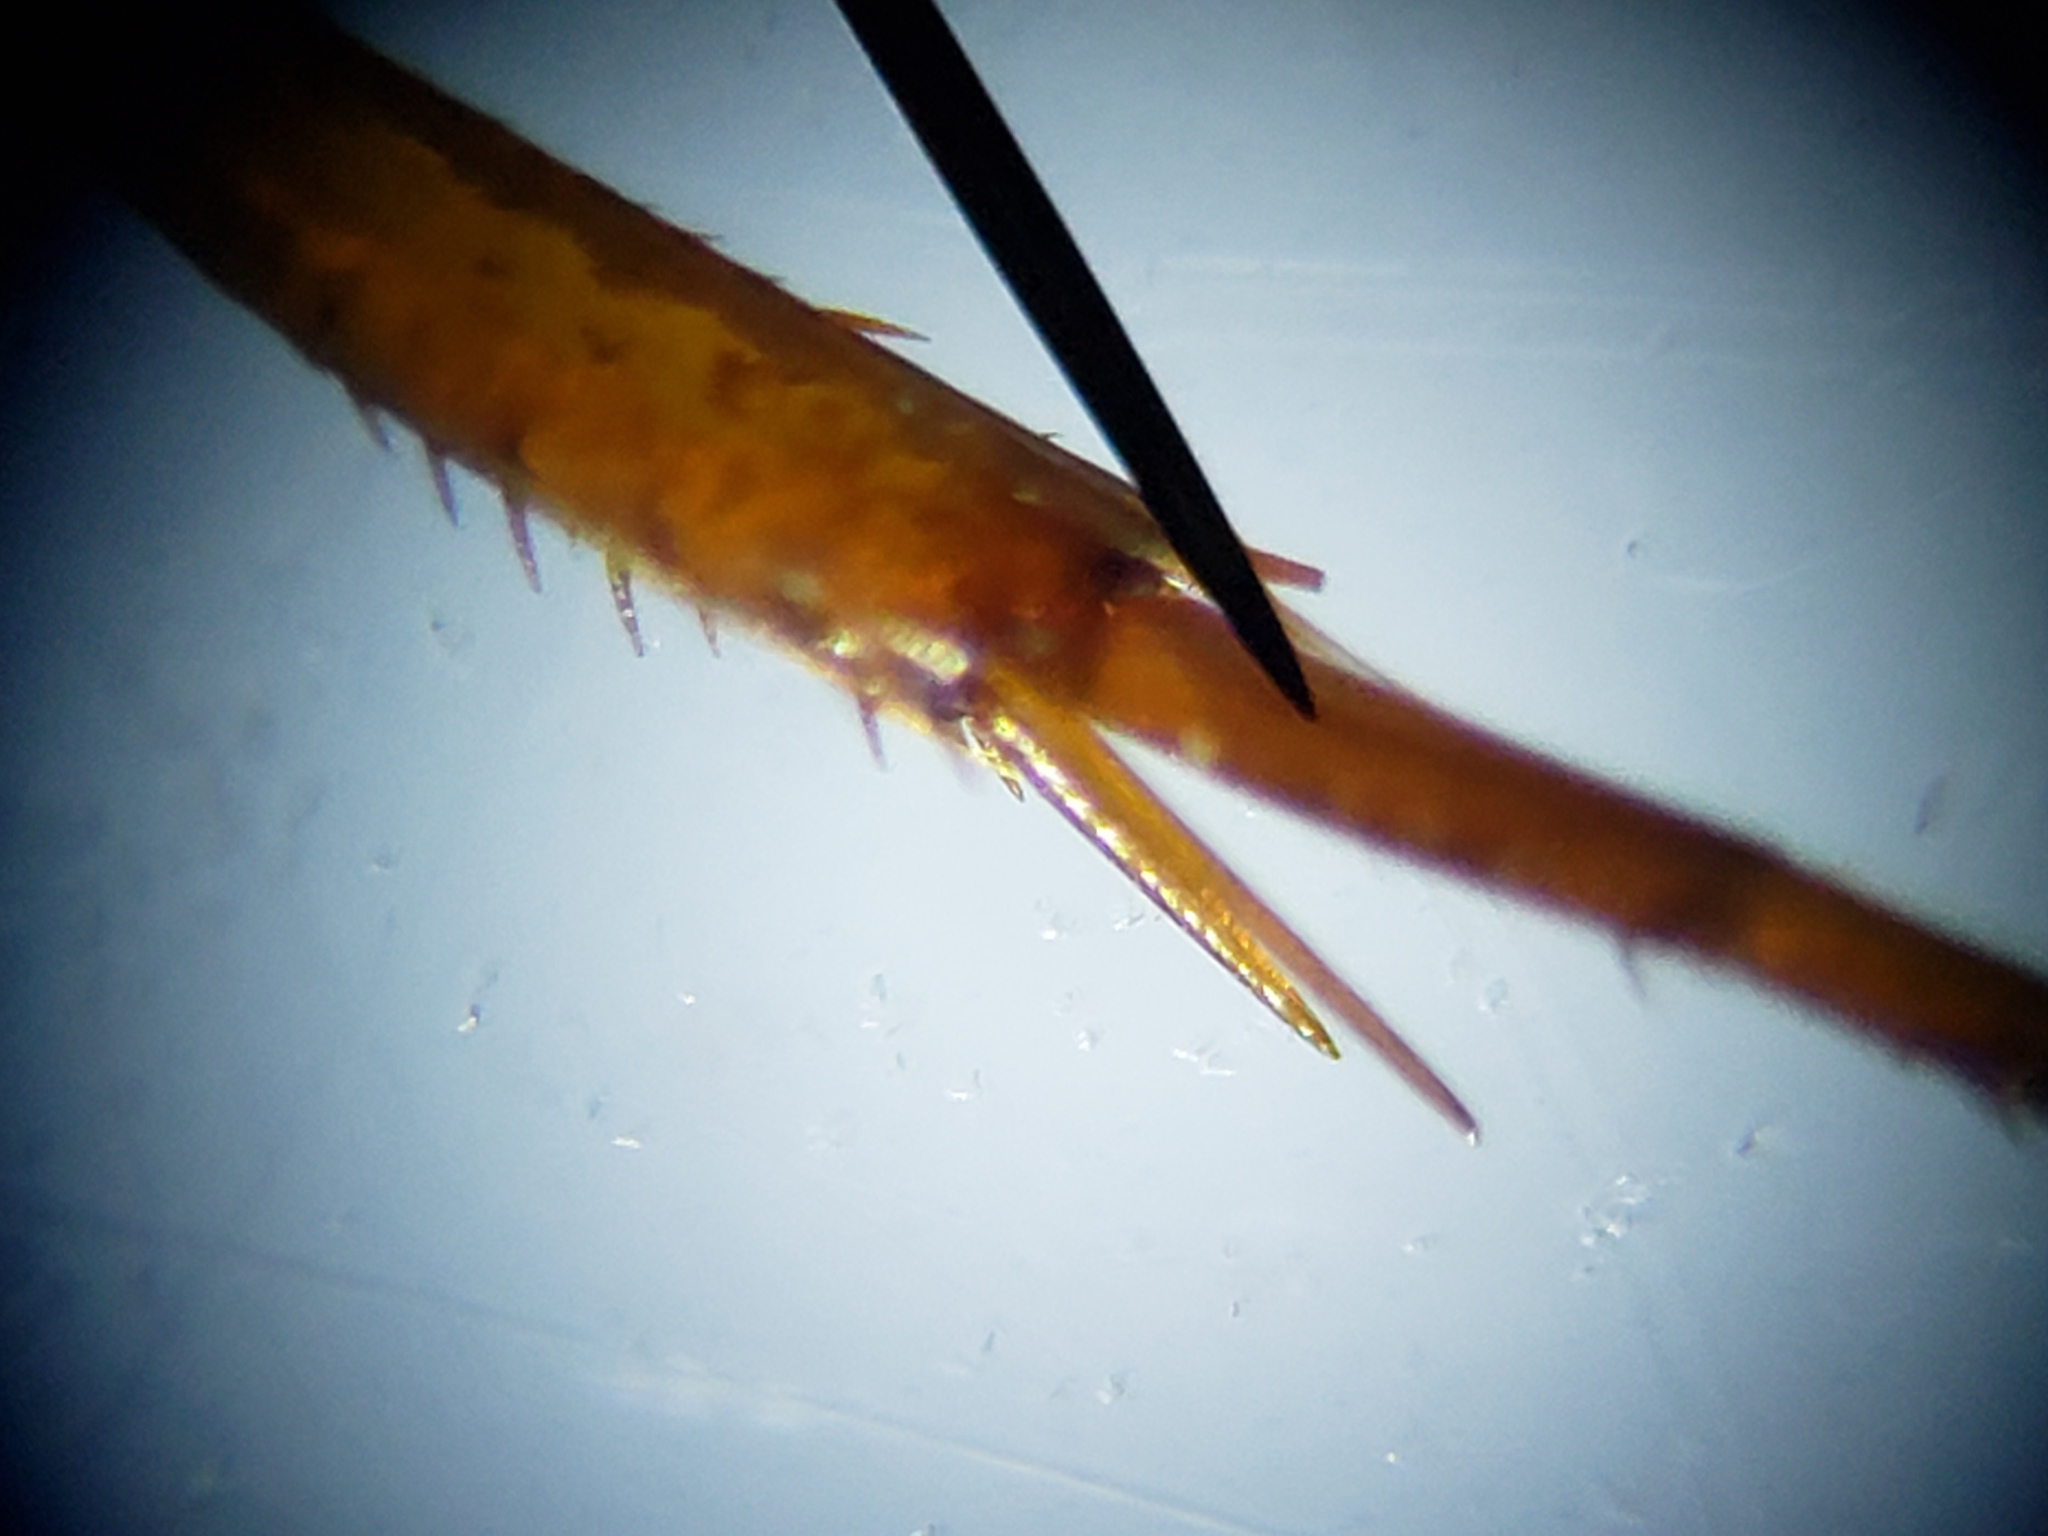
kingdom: Animalia
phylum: Arthropoda
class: Insecta
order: Coleoptera
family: Dytiscidae
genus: Copelatus
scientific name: Copelatus chevrolati
